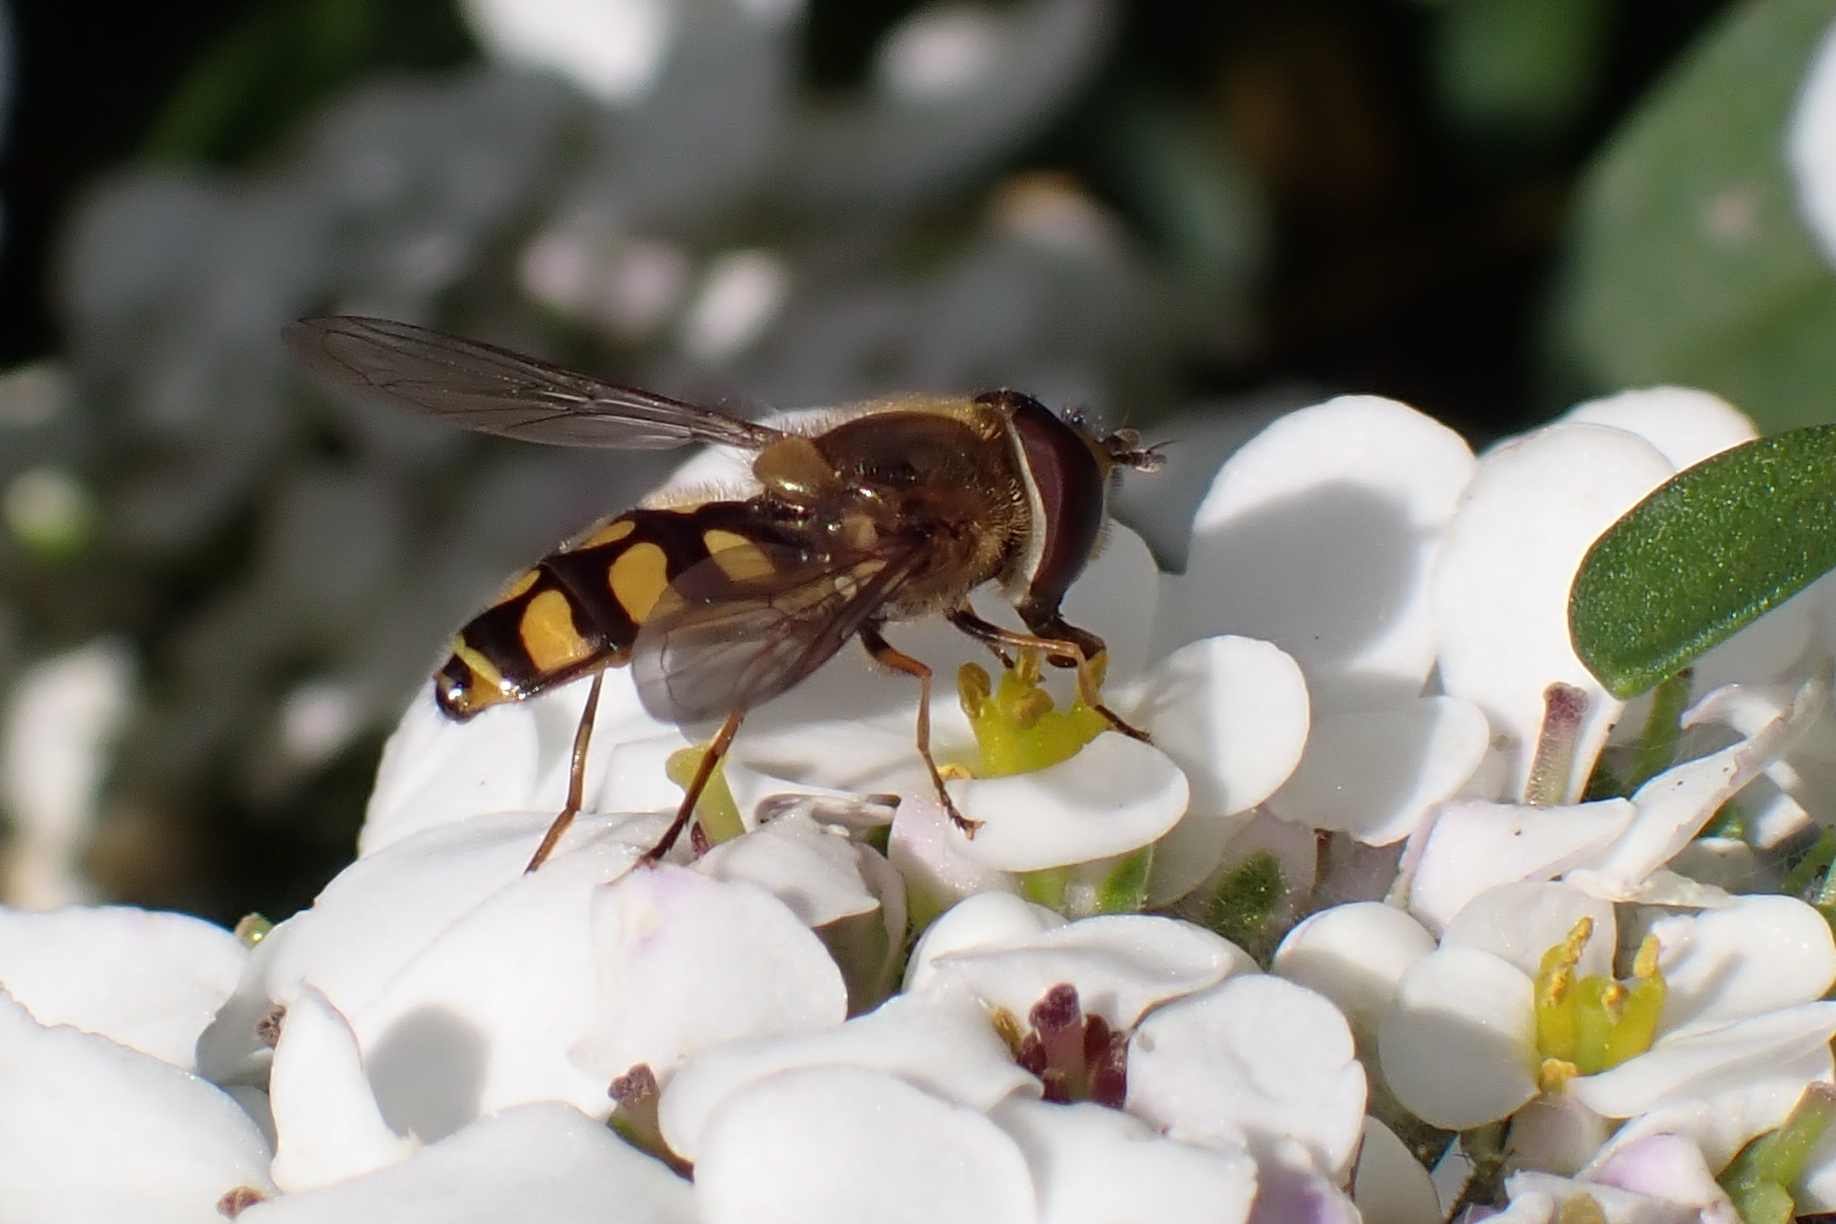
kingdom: Animalia
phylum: Arthropoda
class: Insecta
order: Diptera
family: Syrphidae
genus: Eupeodes
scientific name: Eupeodes
